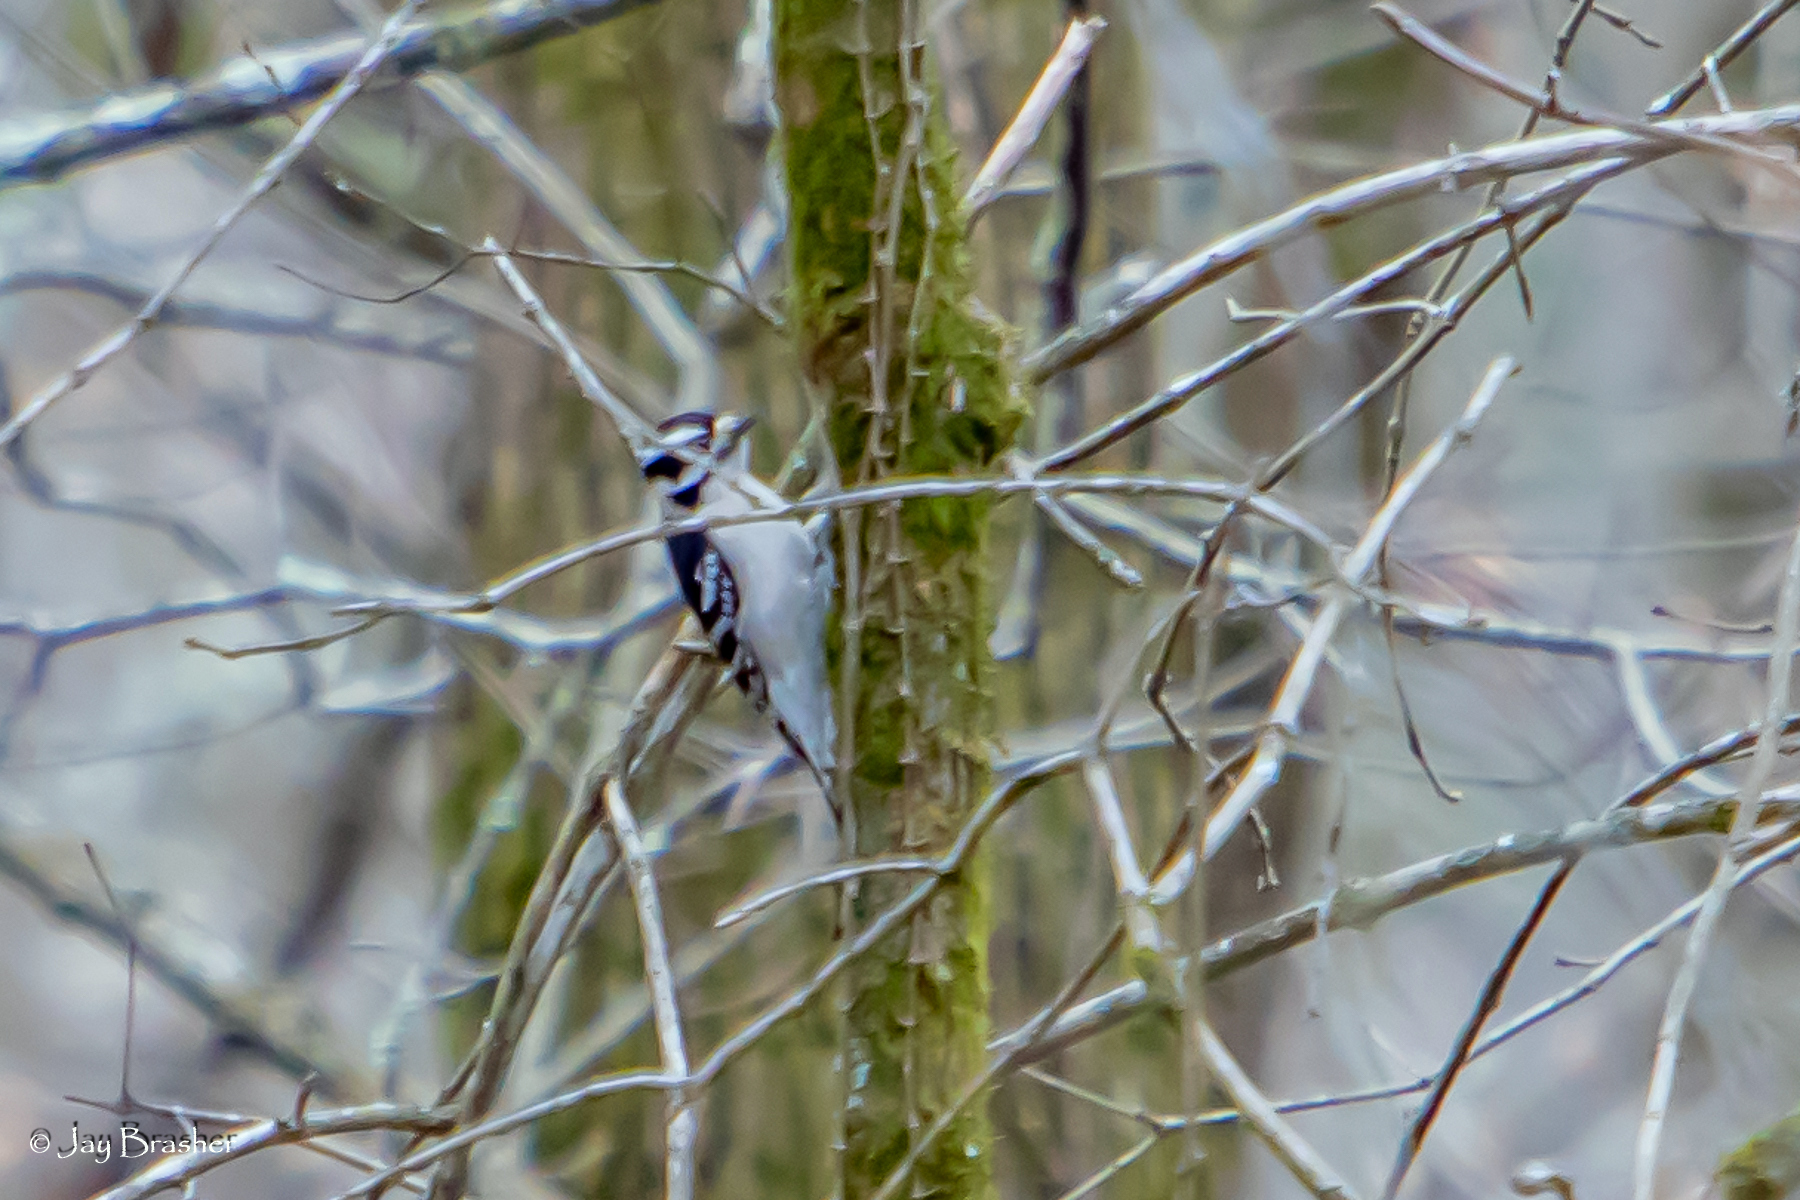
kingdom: Animalia
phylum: Chordata
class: Aves
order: Piciformes
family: Picidae
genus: Dryobates
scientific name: Dryobates pubescens
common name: Downy woodpecker
